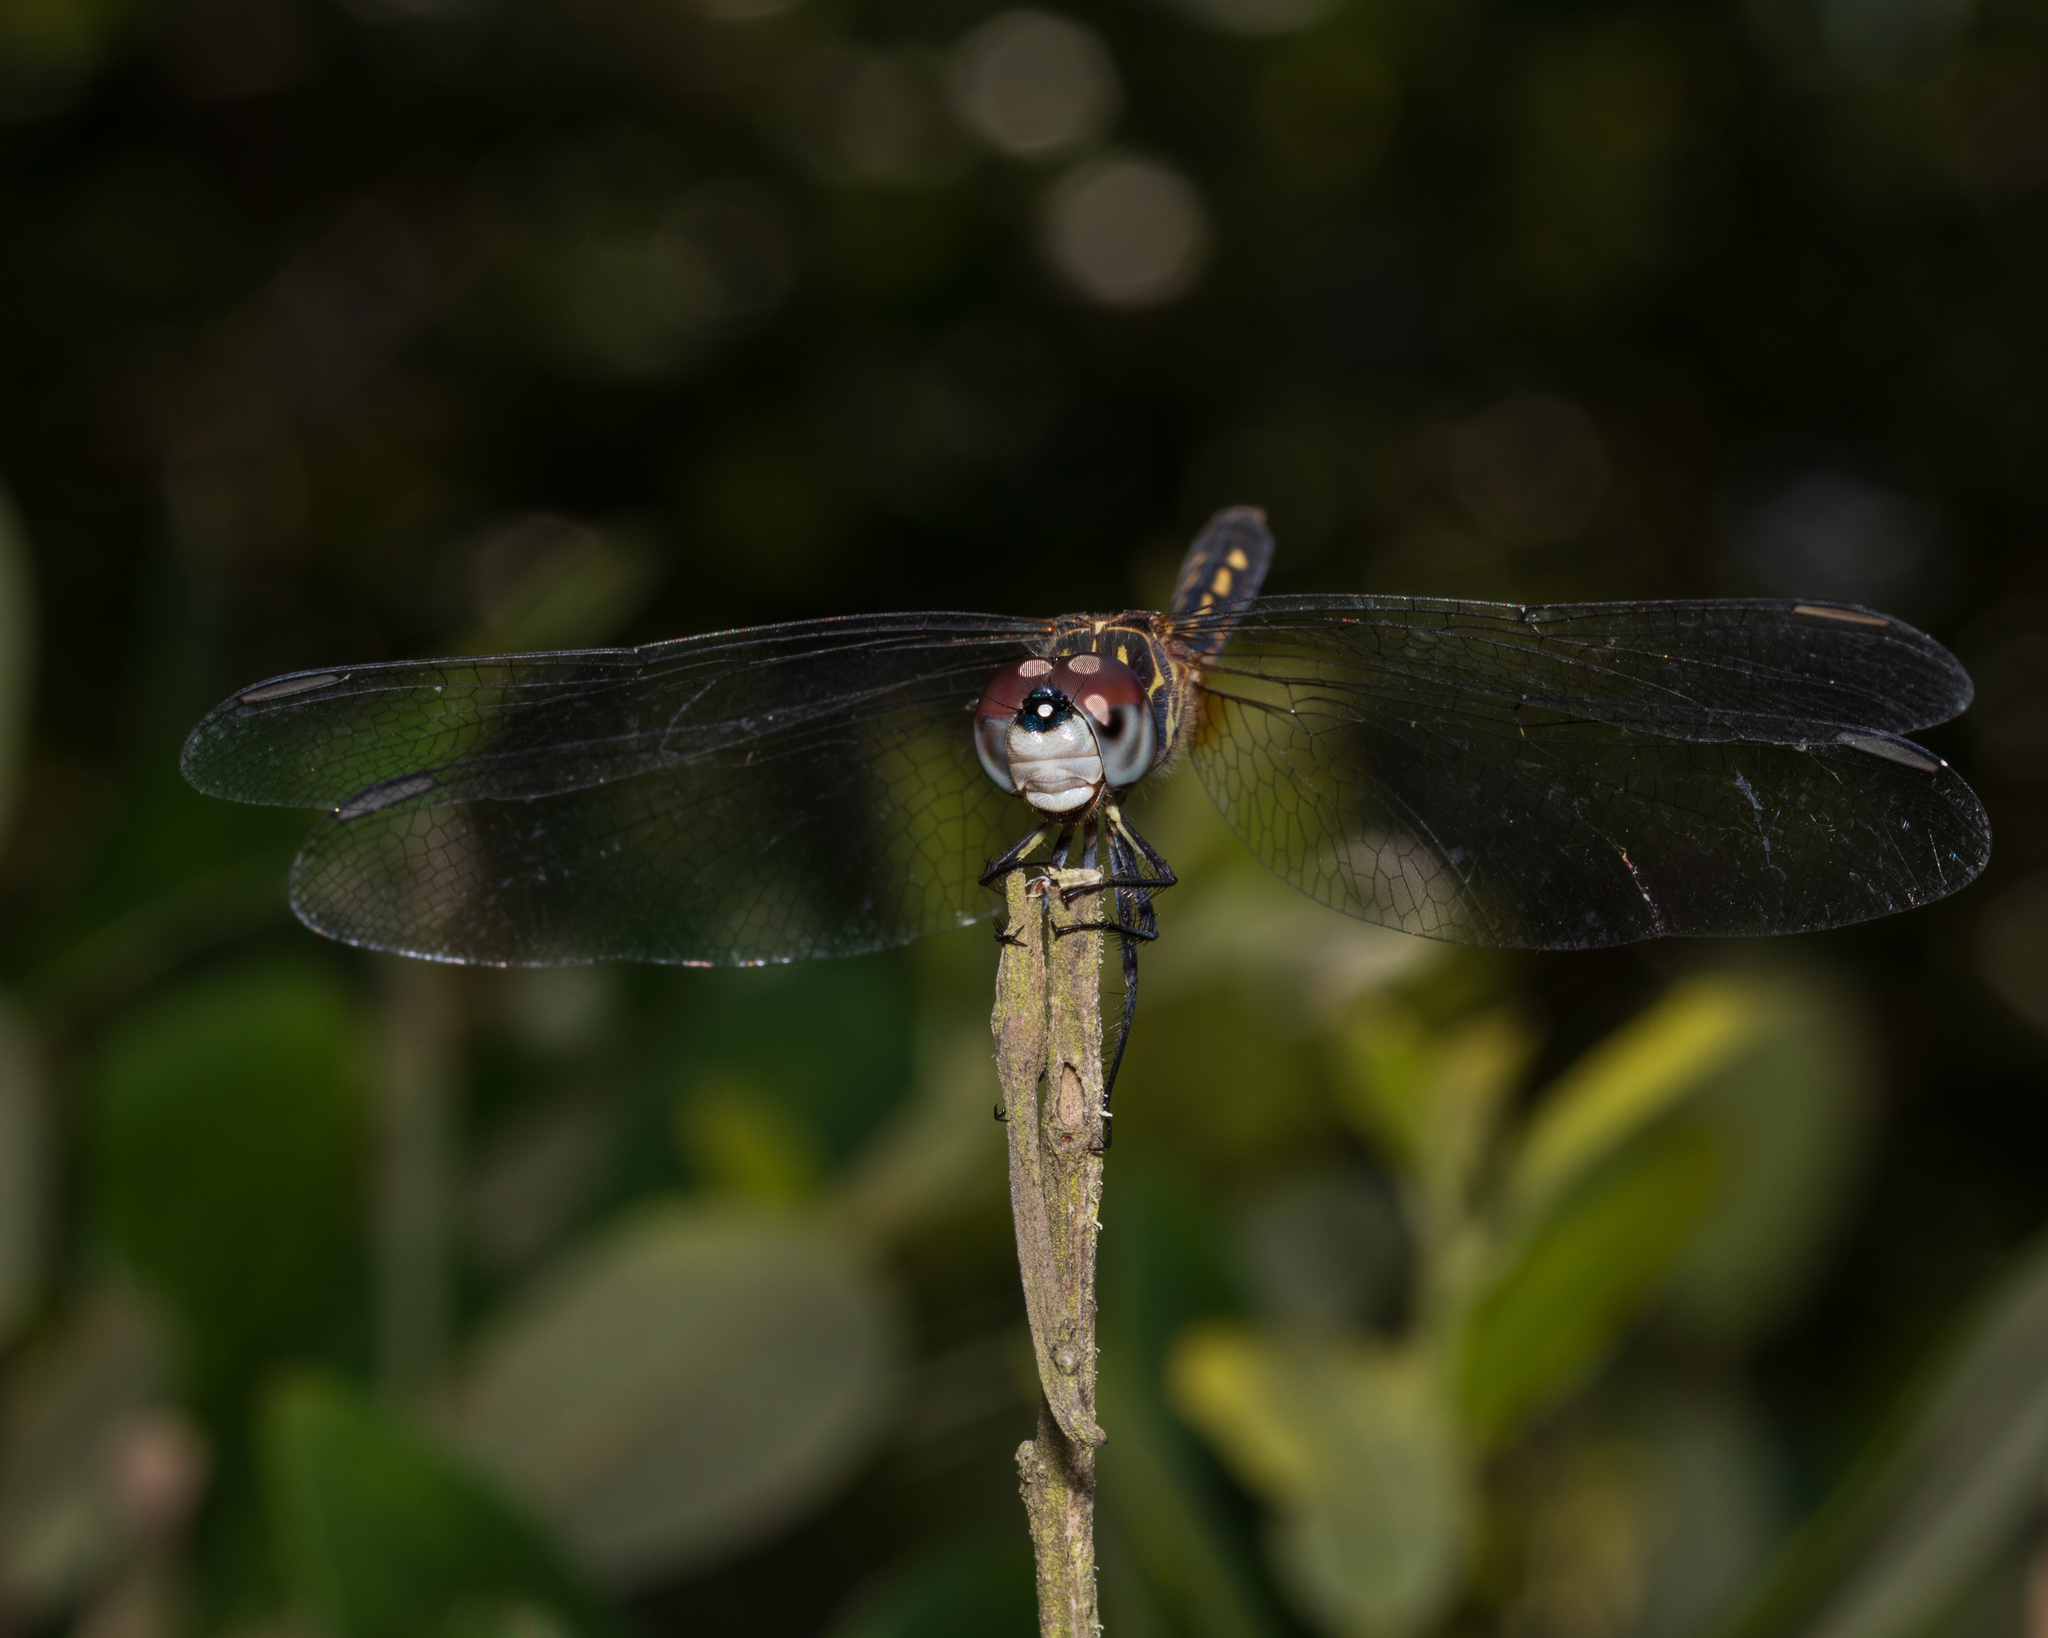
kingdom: Animalia
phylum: Arthropoda
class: Insecta
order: Odonata
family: Libellulidae
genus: Pachydiplax
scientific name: Pachydiplax longipennis
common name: Blue dasher
